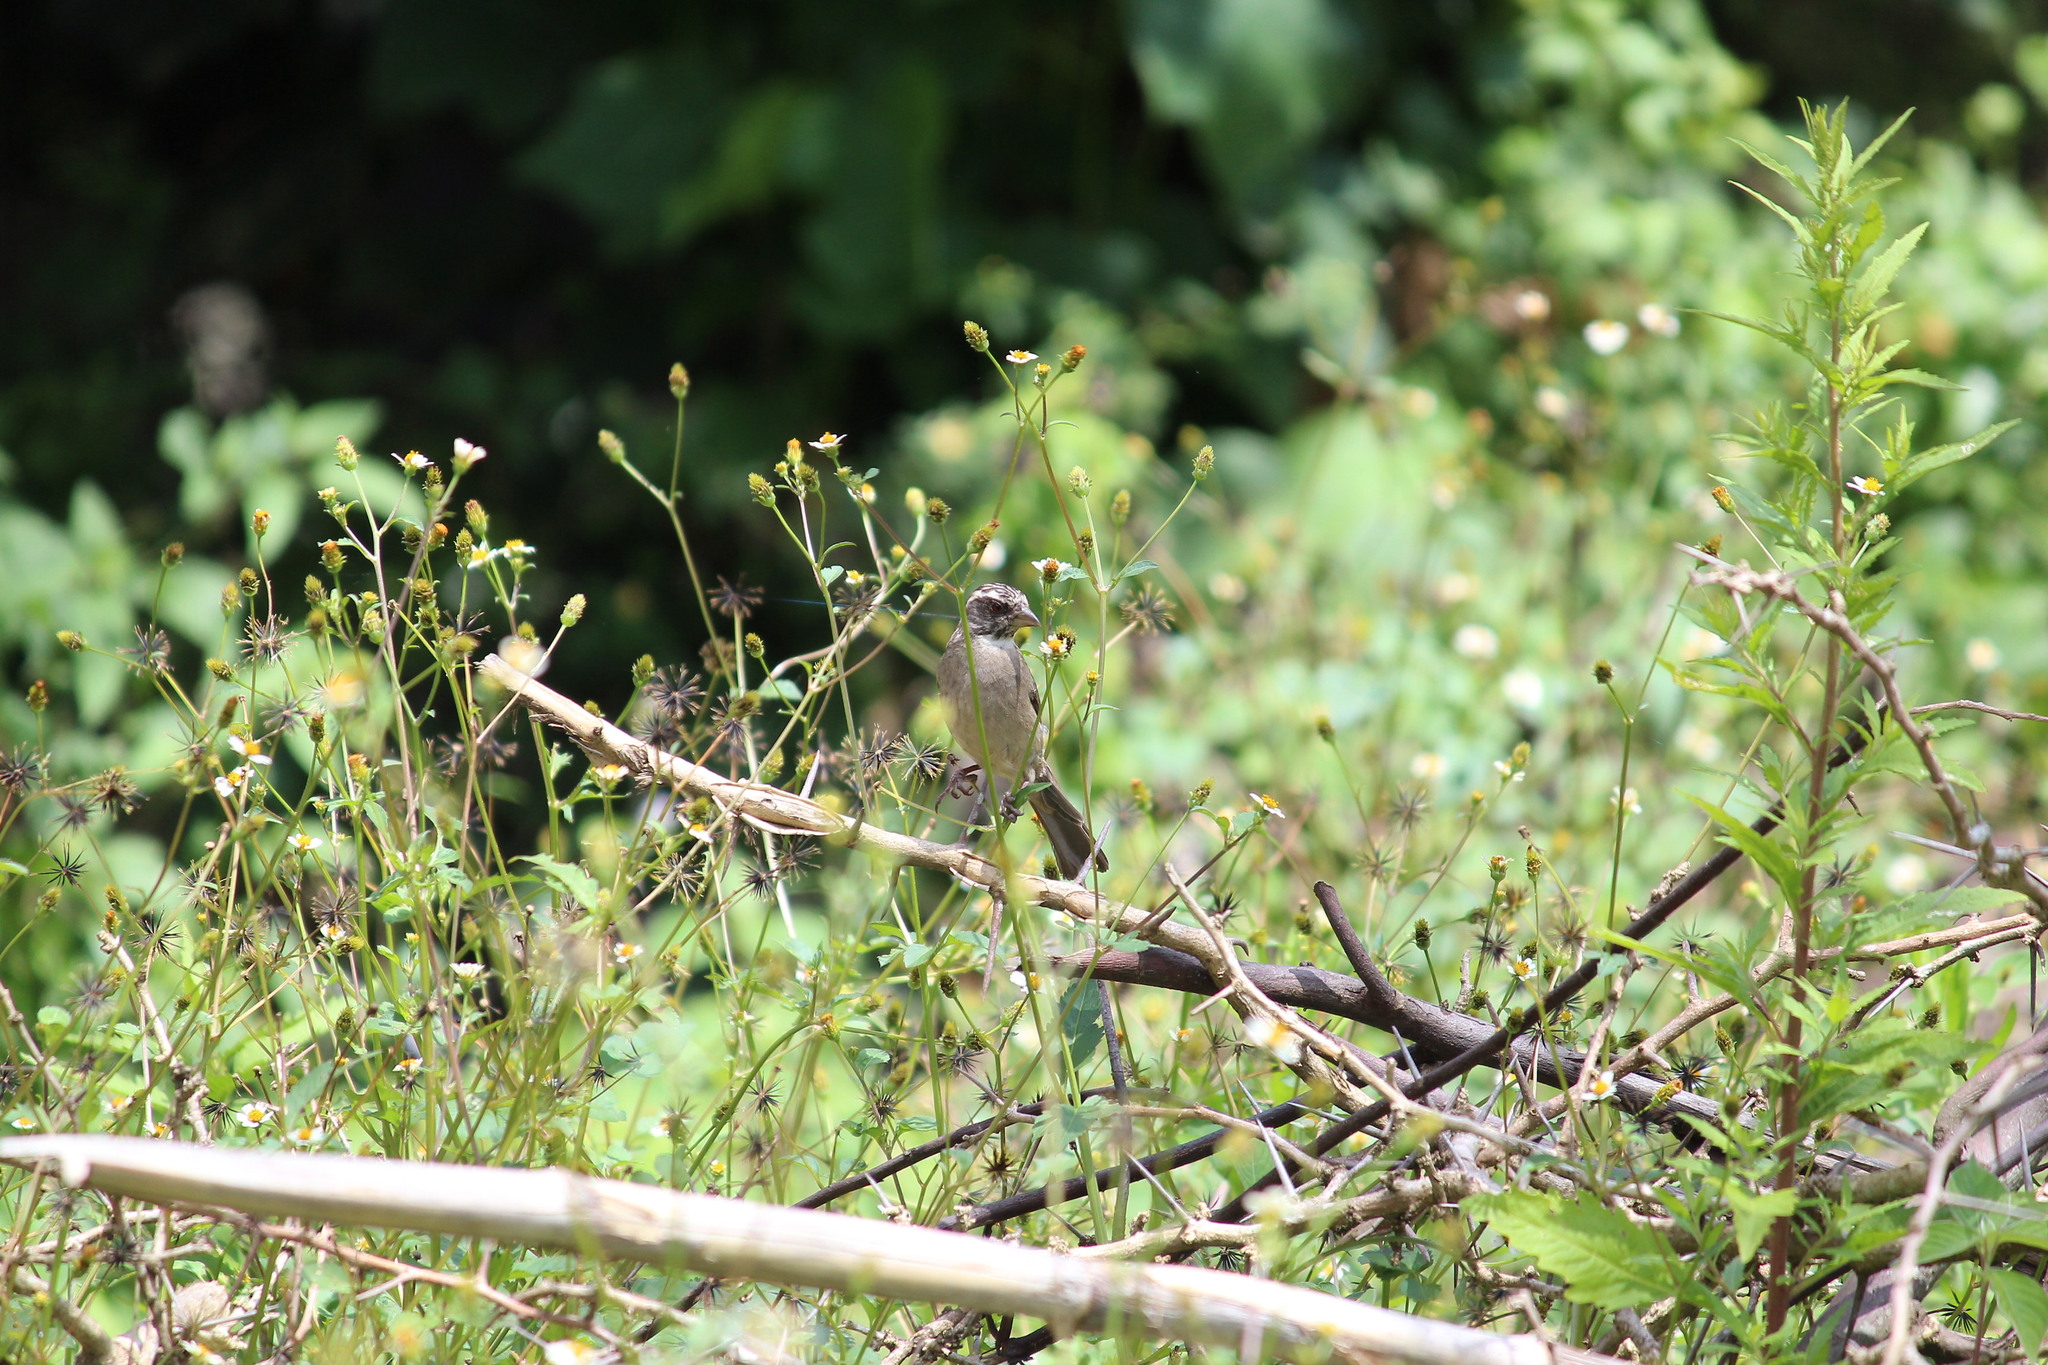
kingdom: Animalia
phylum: Chordata
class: Aves
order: Passeriformes
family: Fringillidae
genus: Crithagra
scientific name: Crithagra gularis
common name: Streaky-headed seedeater
